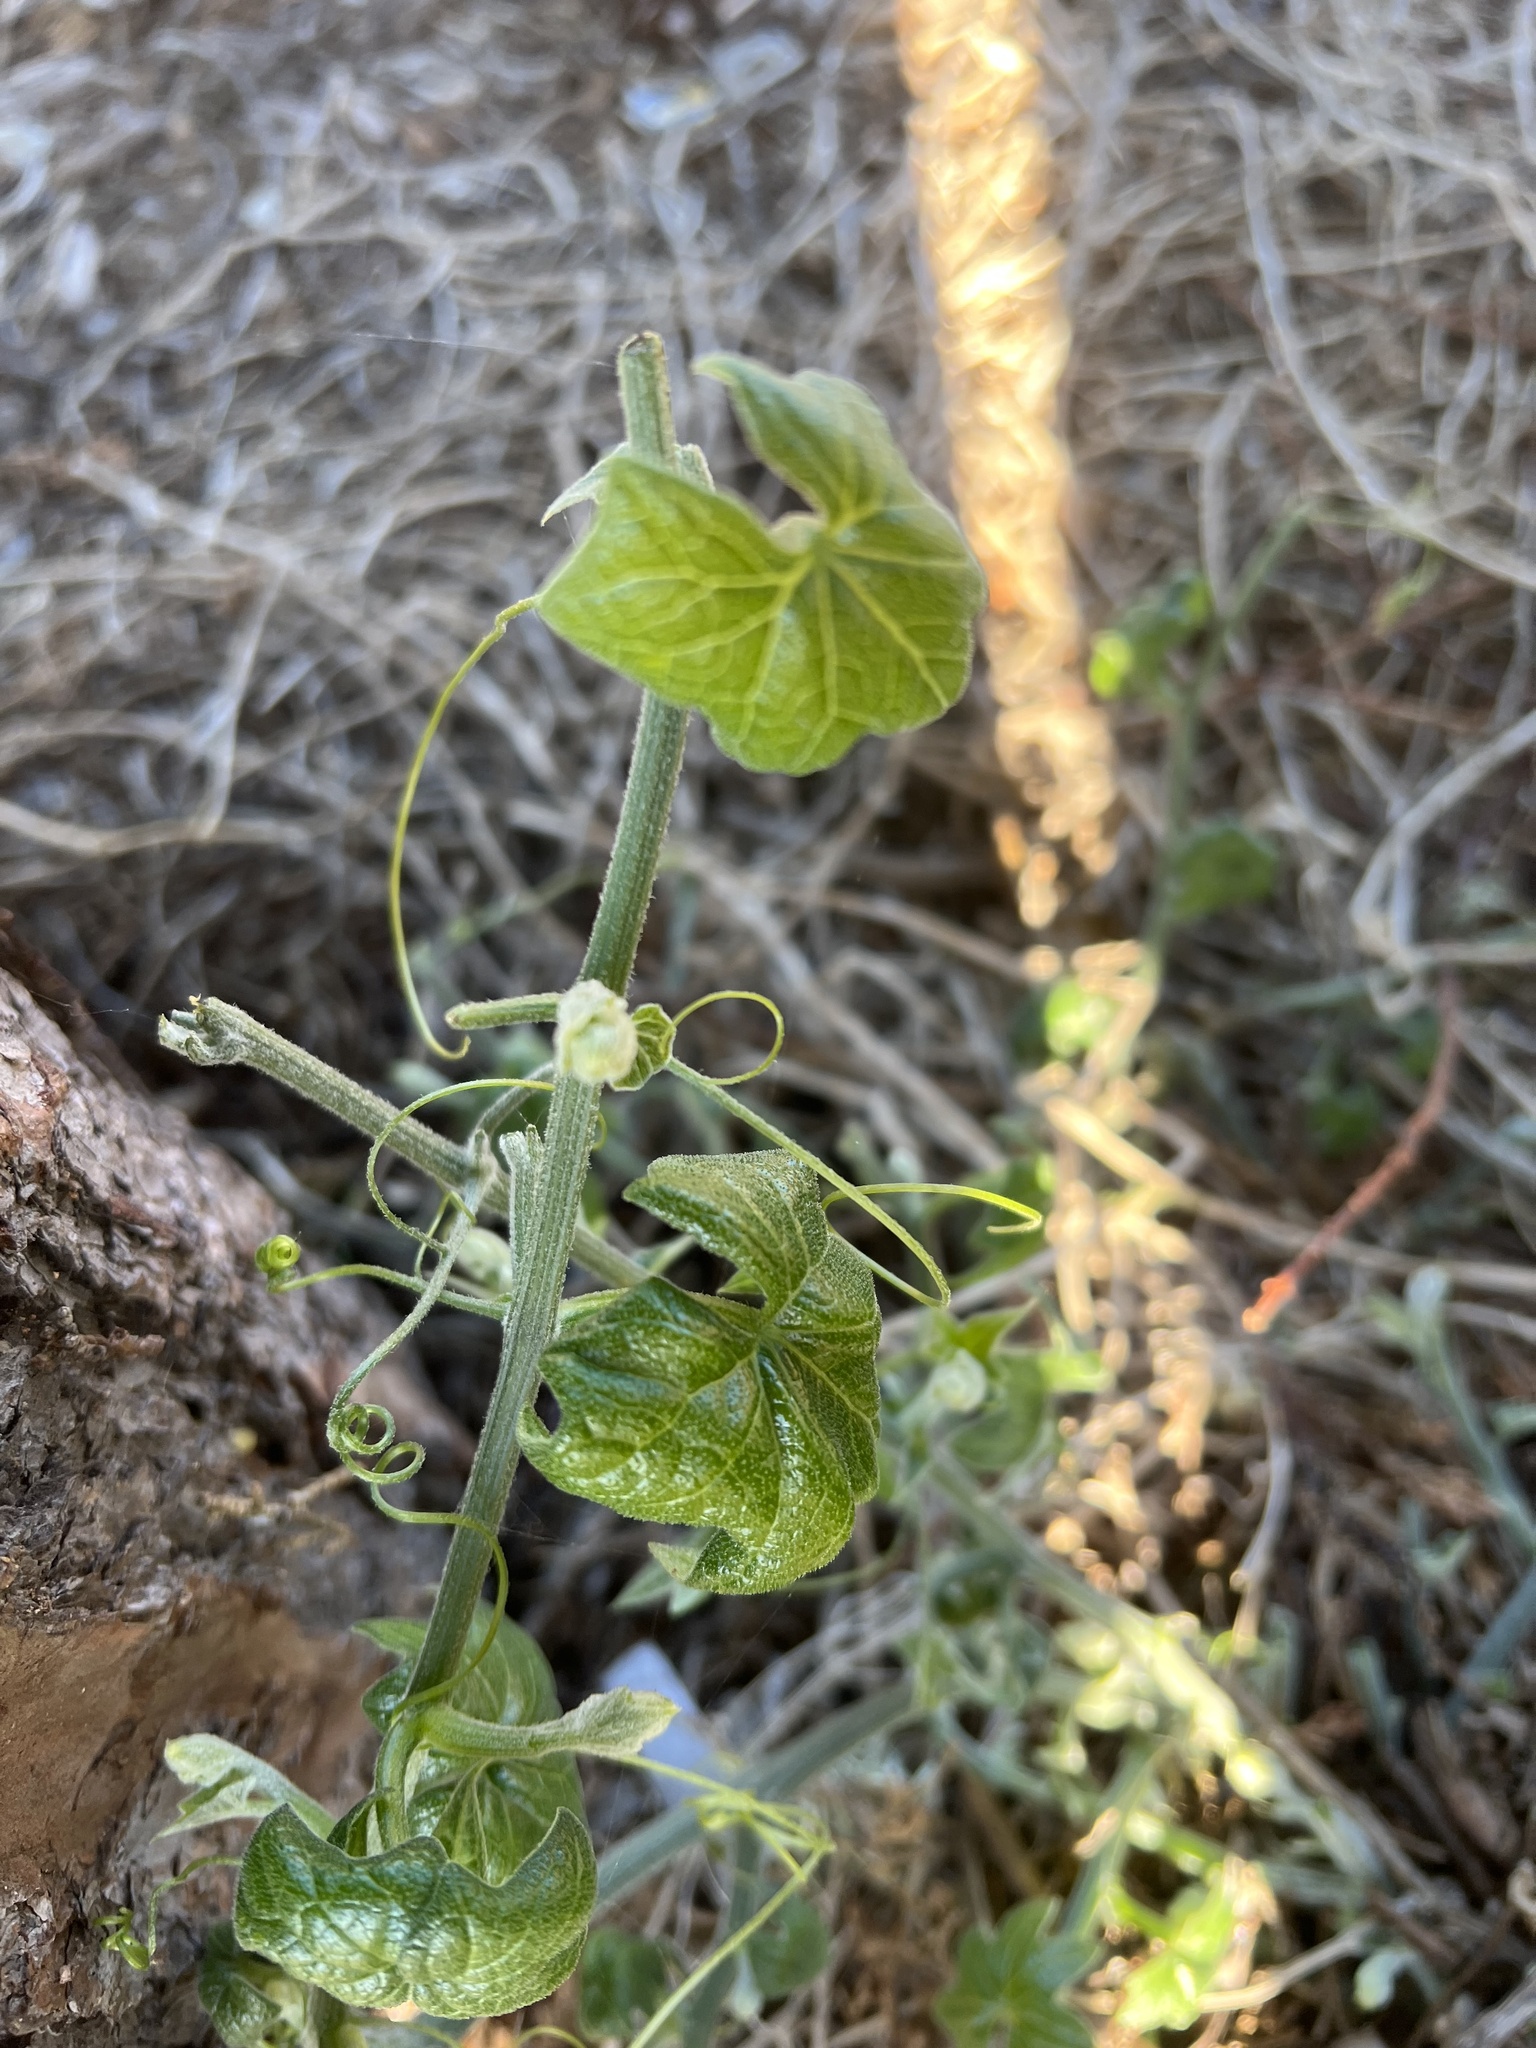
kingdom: Plantae
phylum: Tracheophyta
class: Magnoliopsida
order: Cucurbitales
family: Cucurbitaceae
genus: Marah
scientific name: Marah fabacea
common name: California manroot
